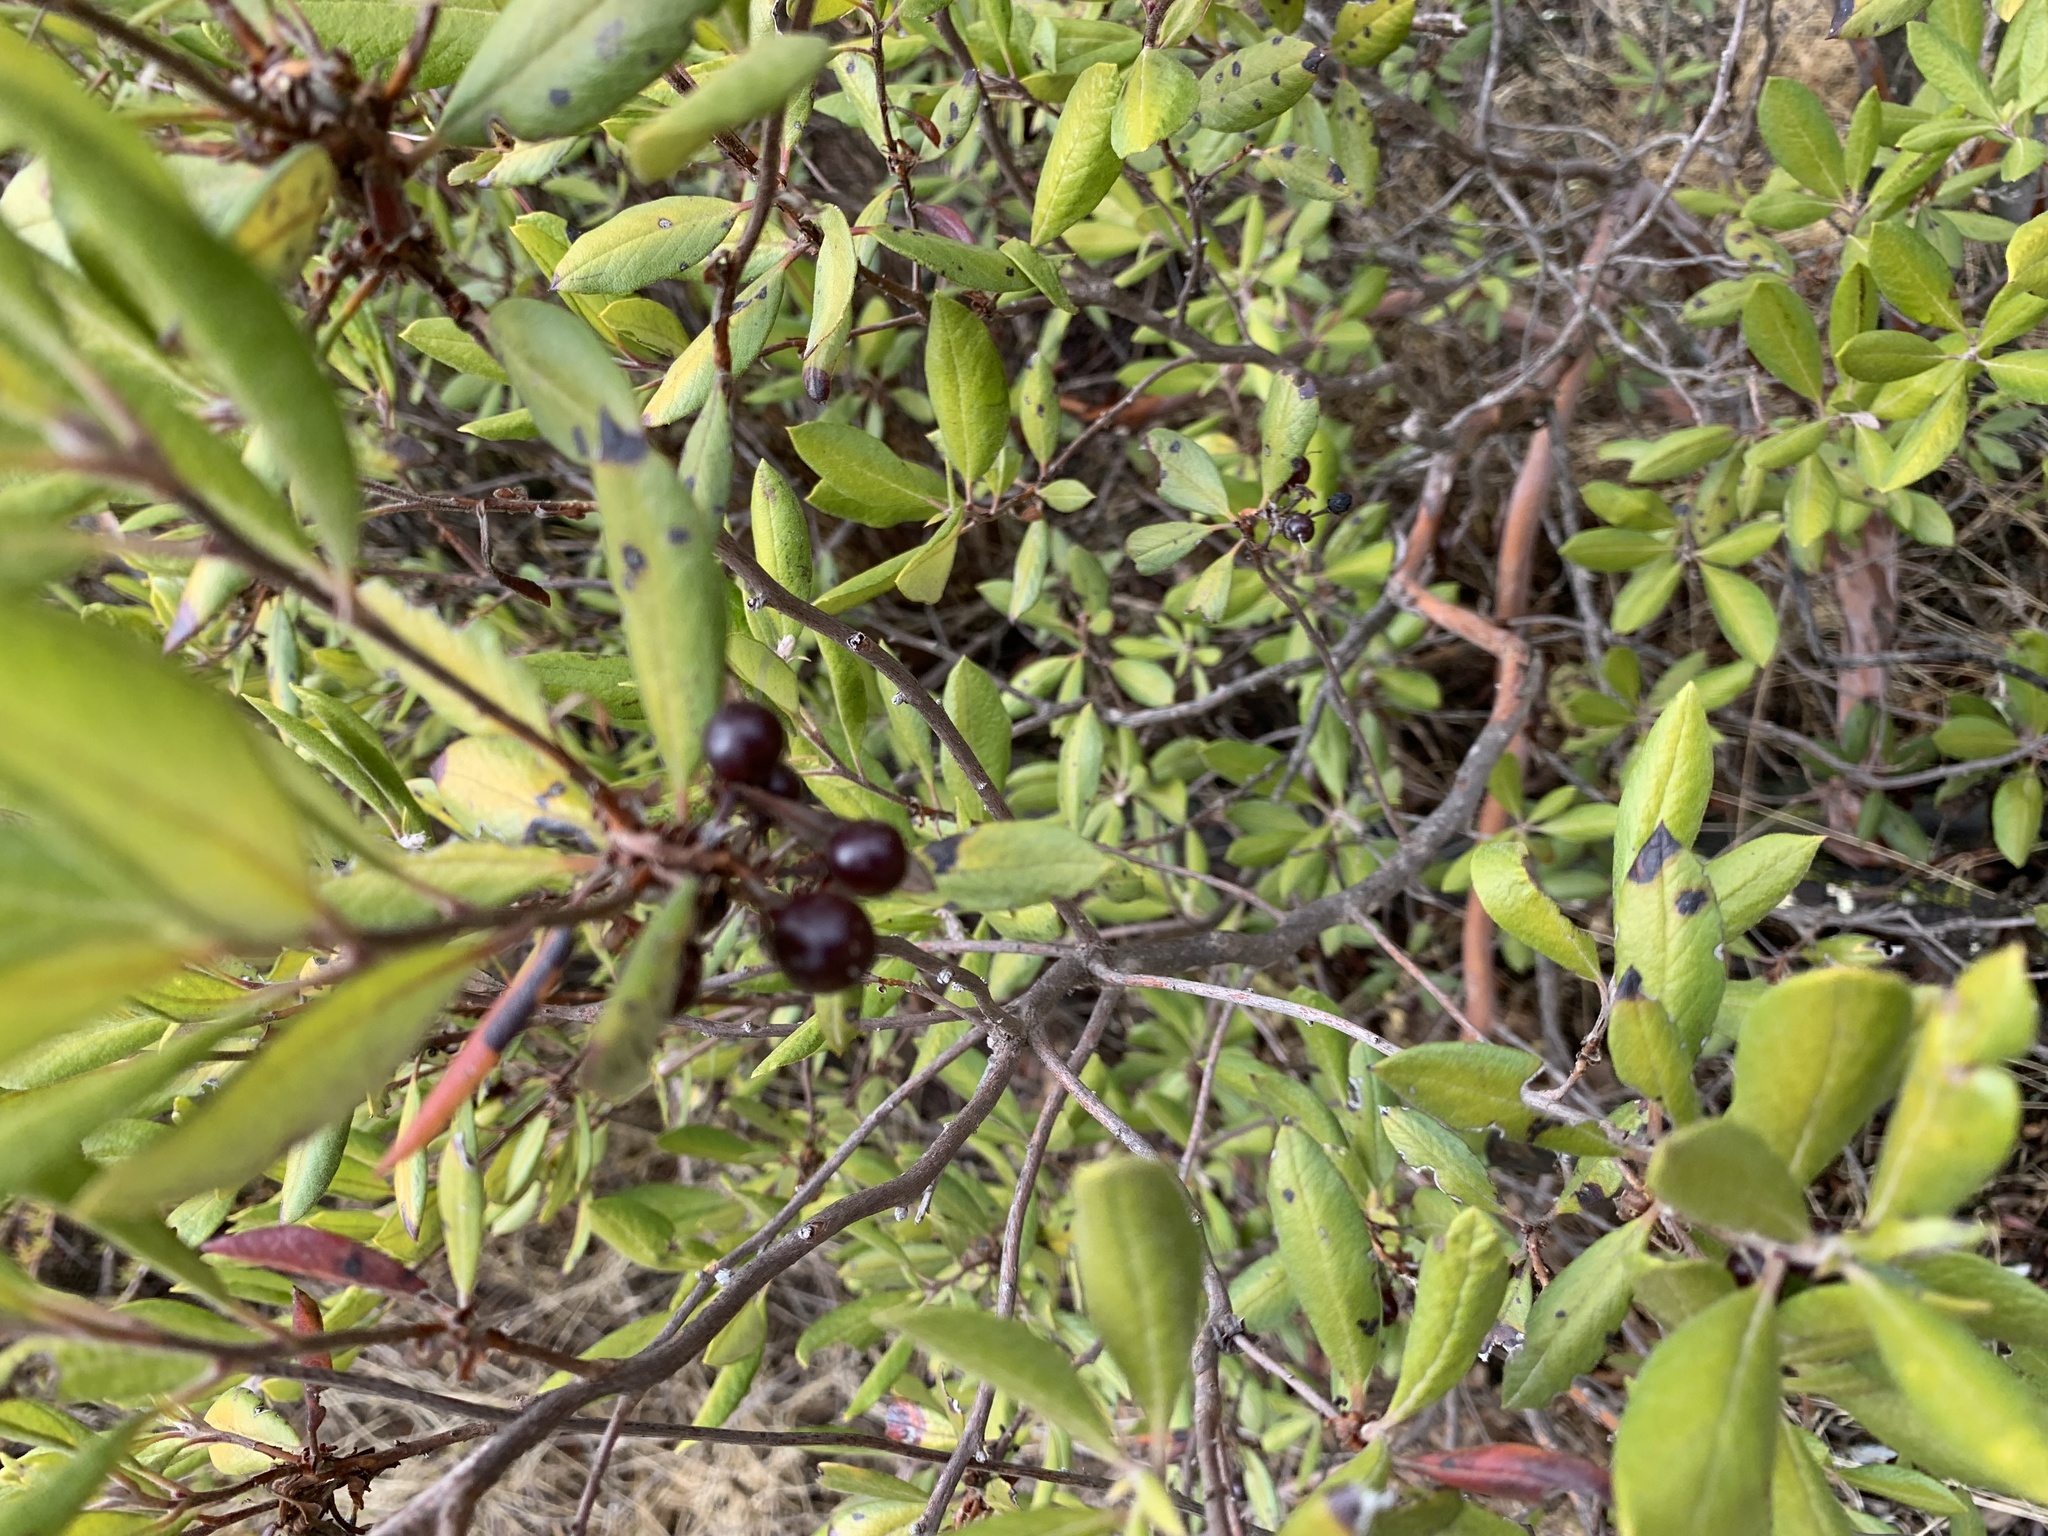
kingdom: Plantae
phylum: Tracheophyta
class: Magnoliopsida
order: Ericales
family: Ericaceae
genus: Arctostaphylos
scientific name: Arctostaphylos bicolor
